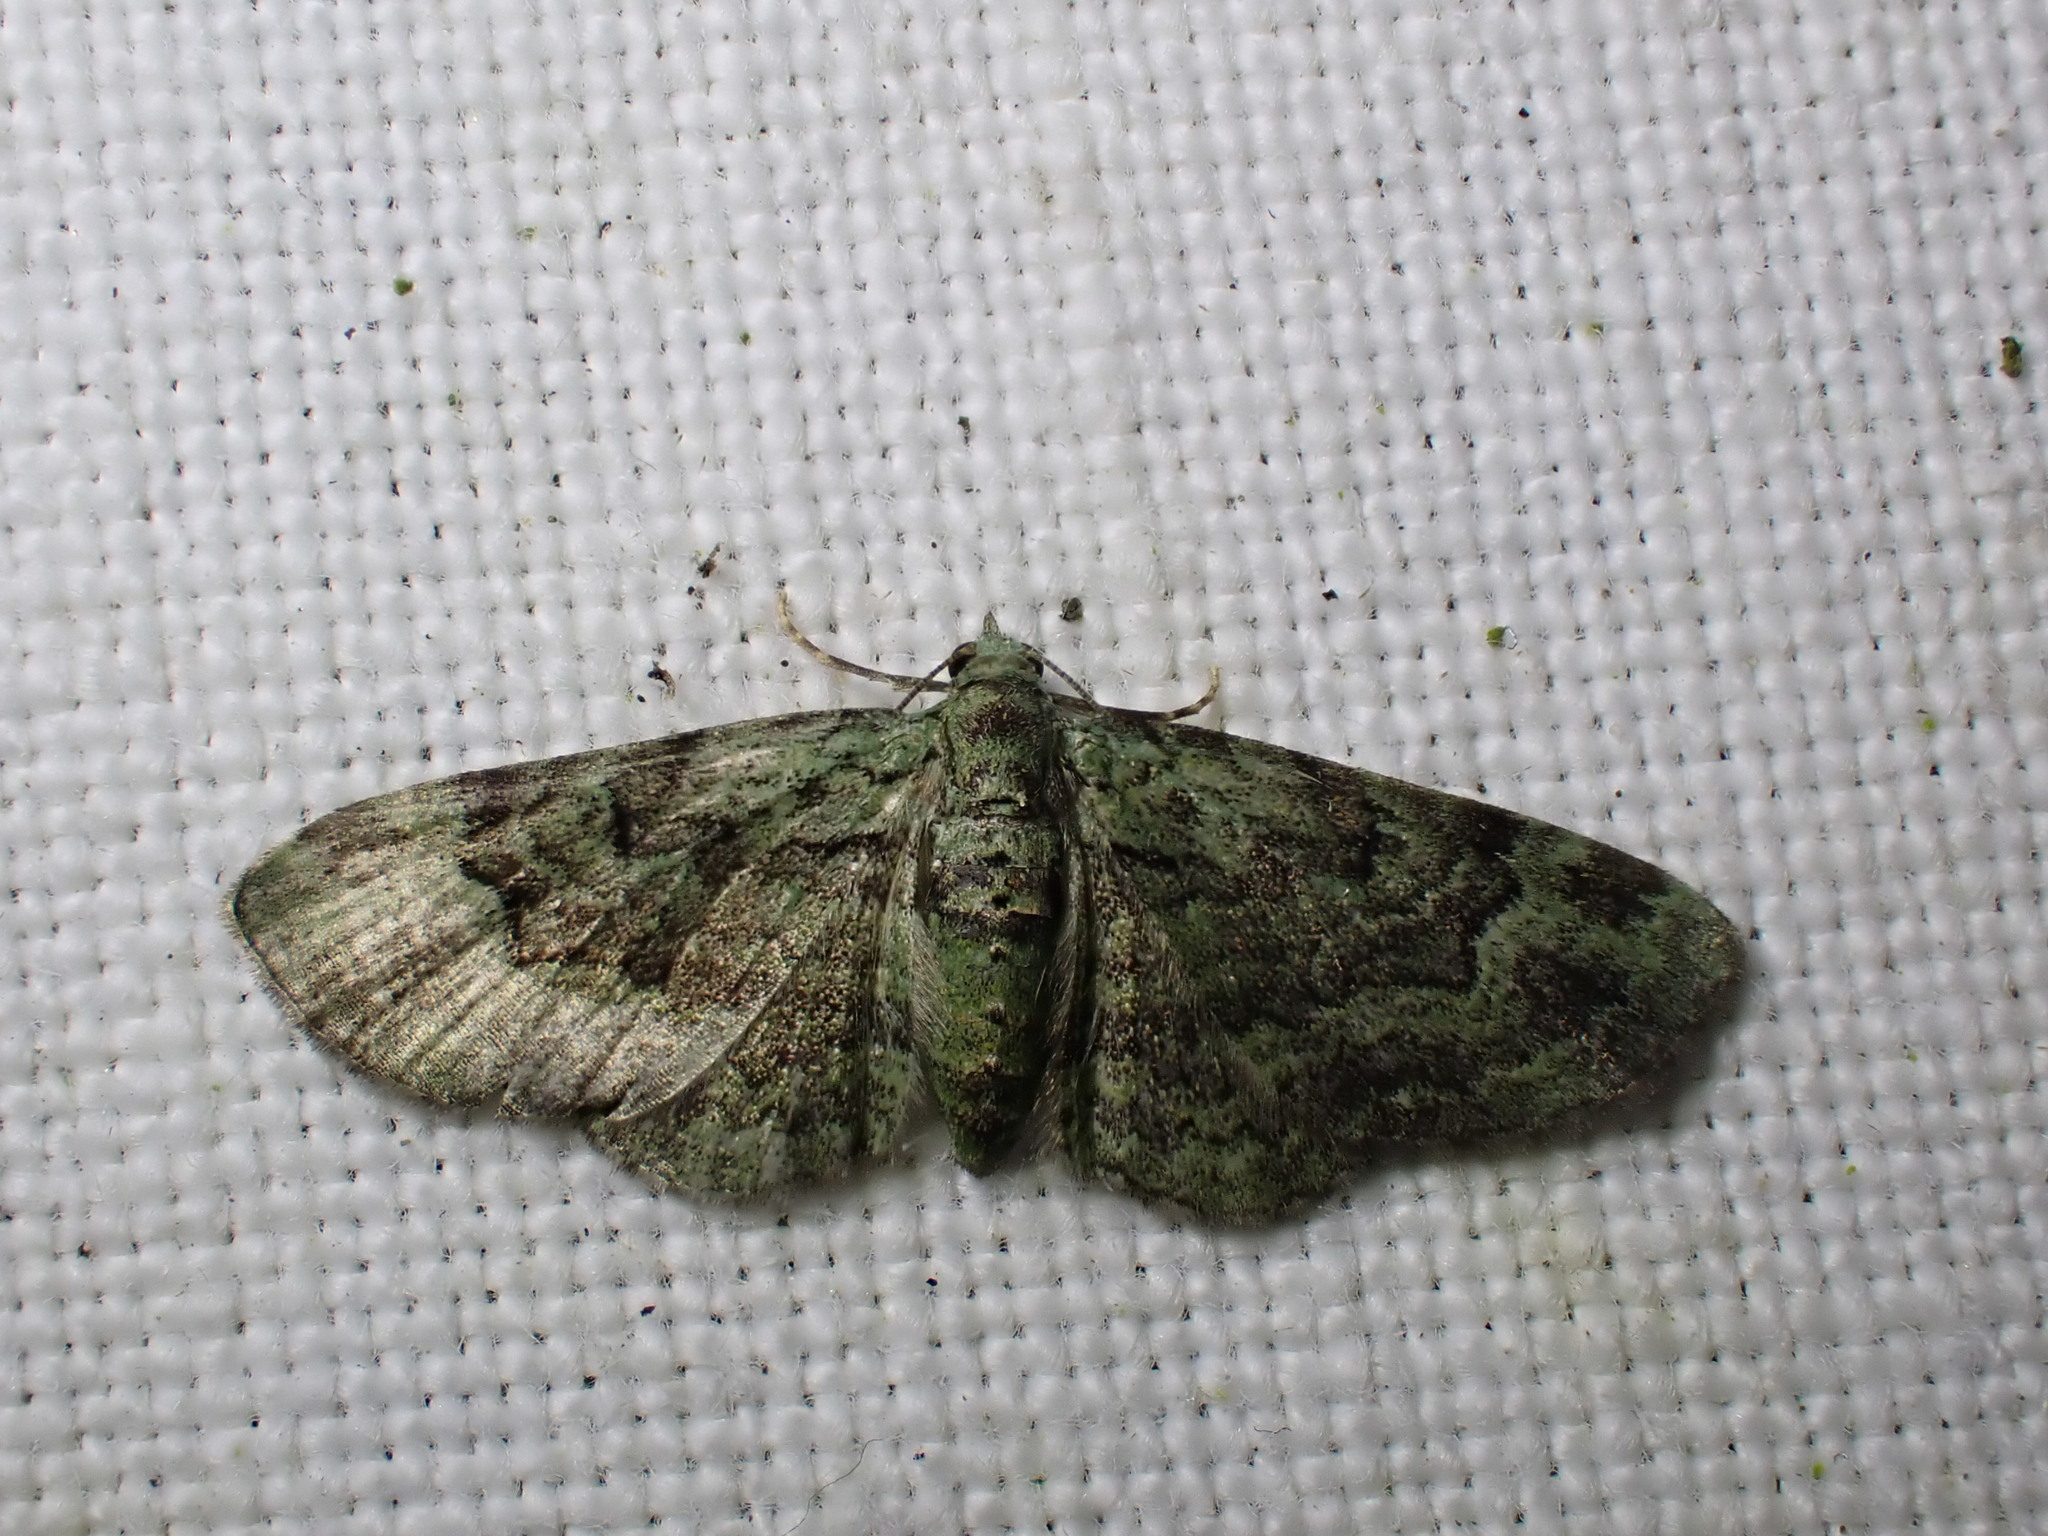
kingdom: Animalia
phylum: Arthropoda
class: Insecta
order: Lepidoptera
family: Geometridae
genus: Pasiphila
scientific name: Pasiphila rectangulata
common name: Green pug
